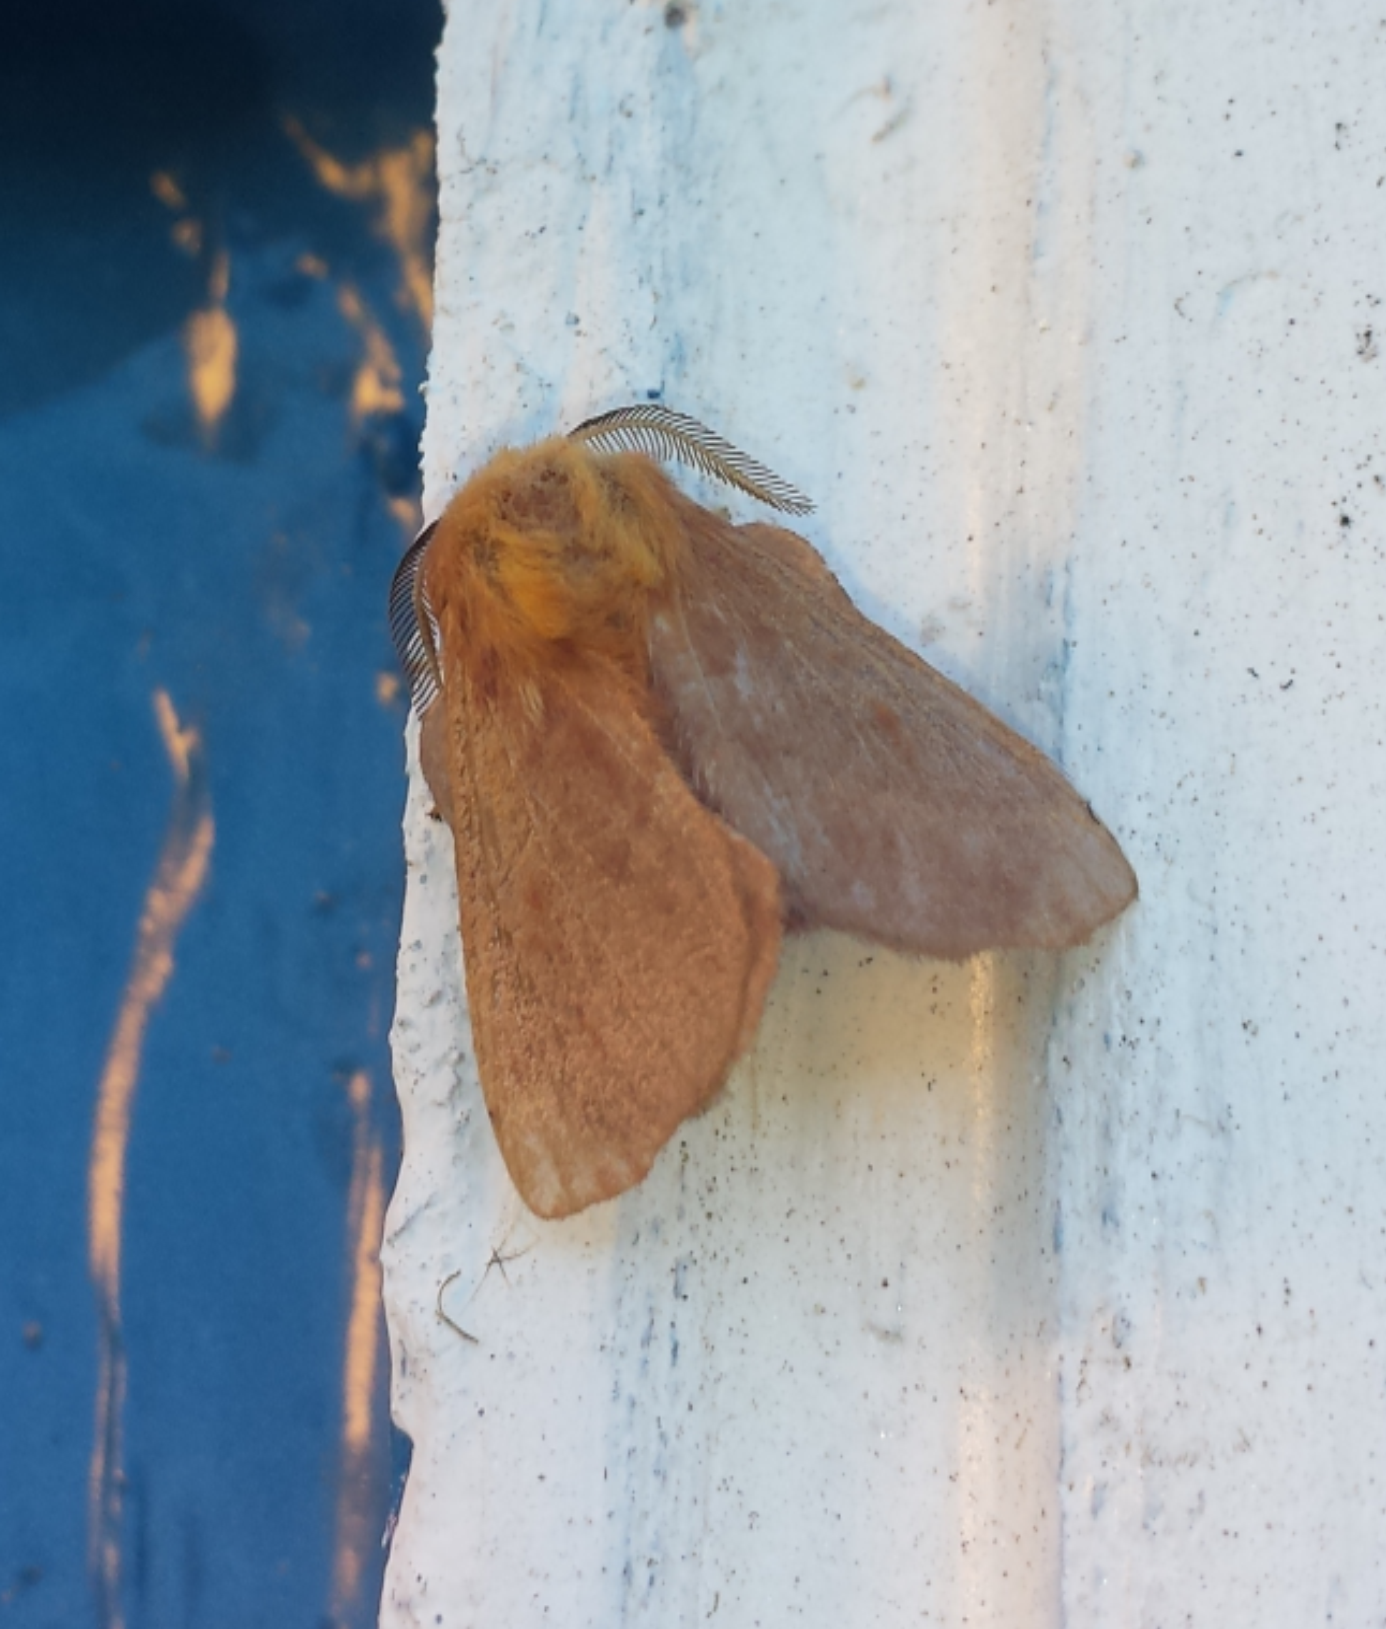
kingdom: Animalia
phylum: Arthropoda
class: Insecta
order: Lepidoptera
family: Lasiocampidae
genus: Malacosoma
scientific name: Malacosoma disstria
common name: Forest tent caterpillar
